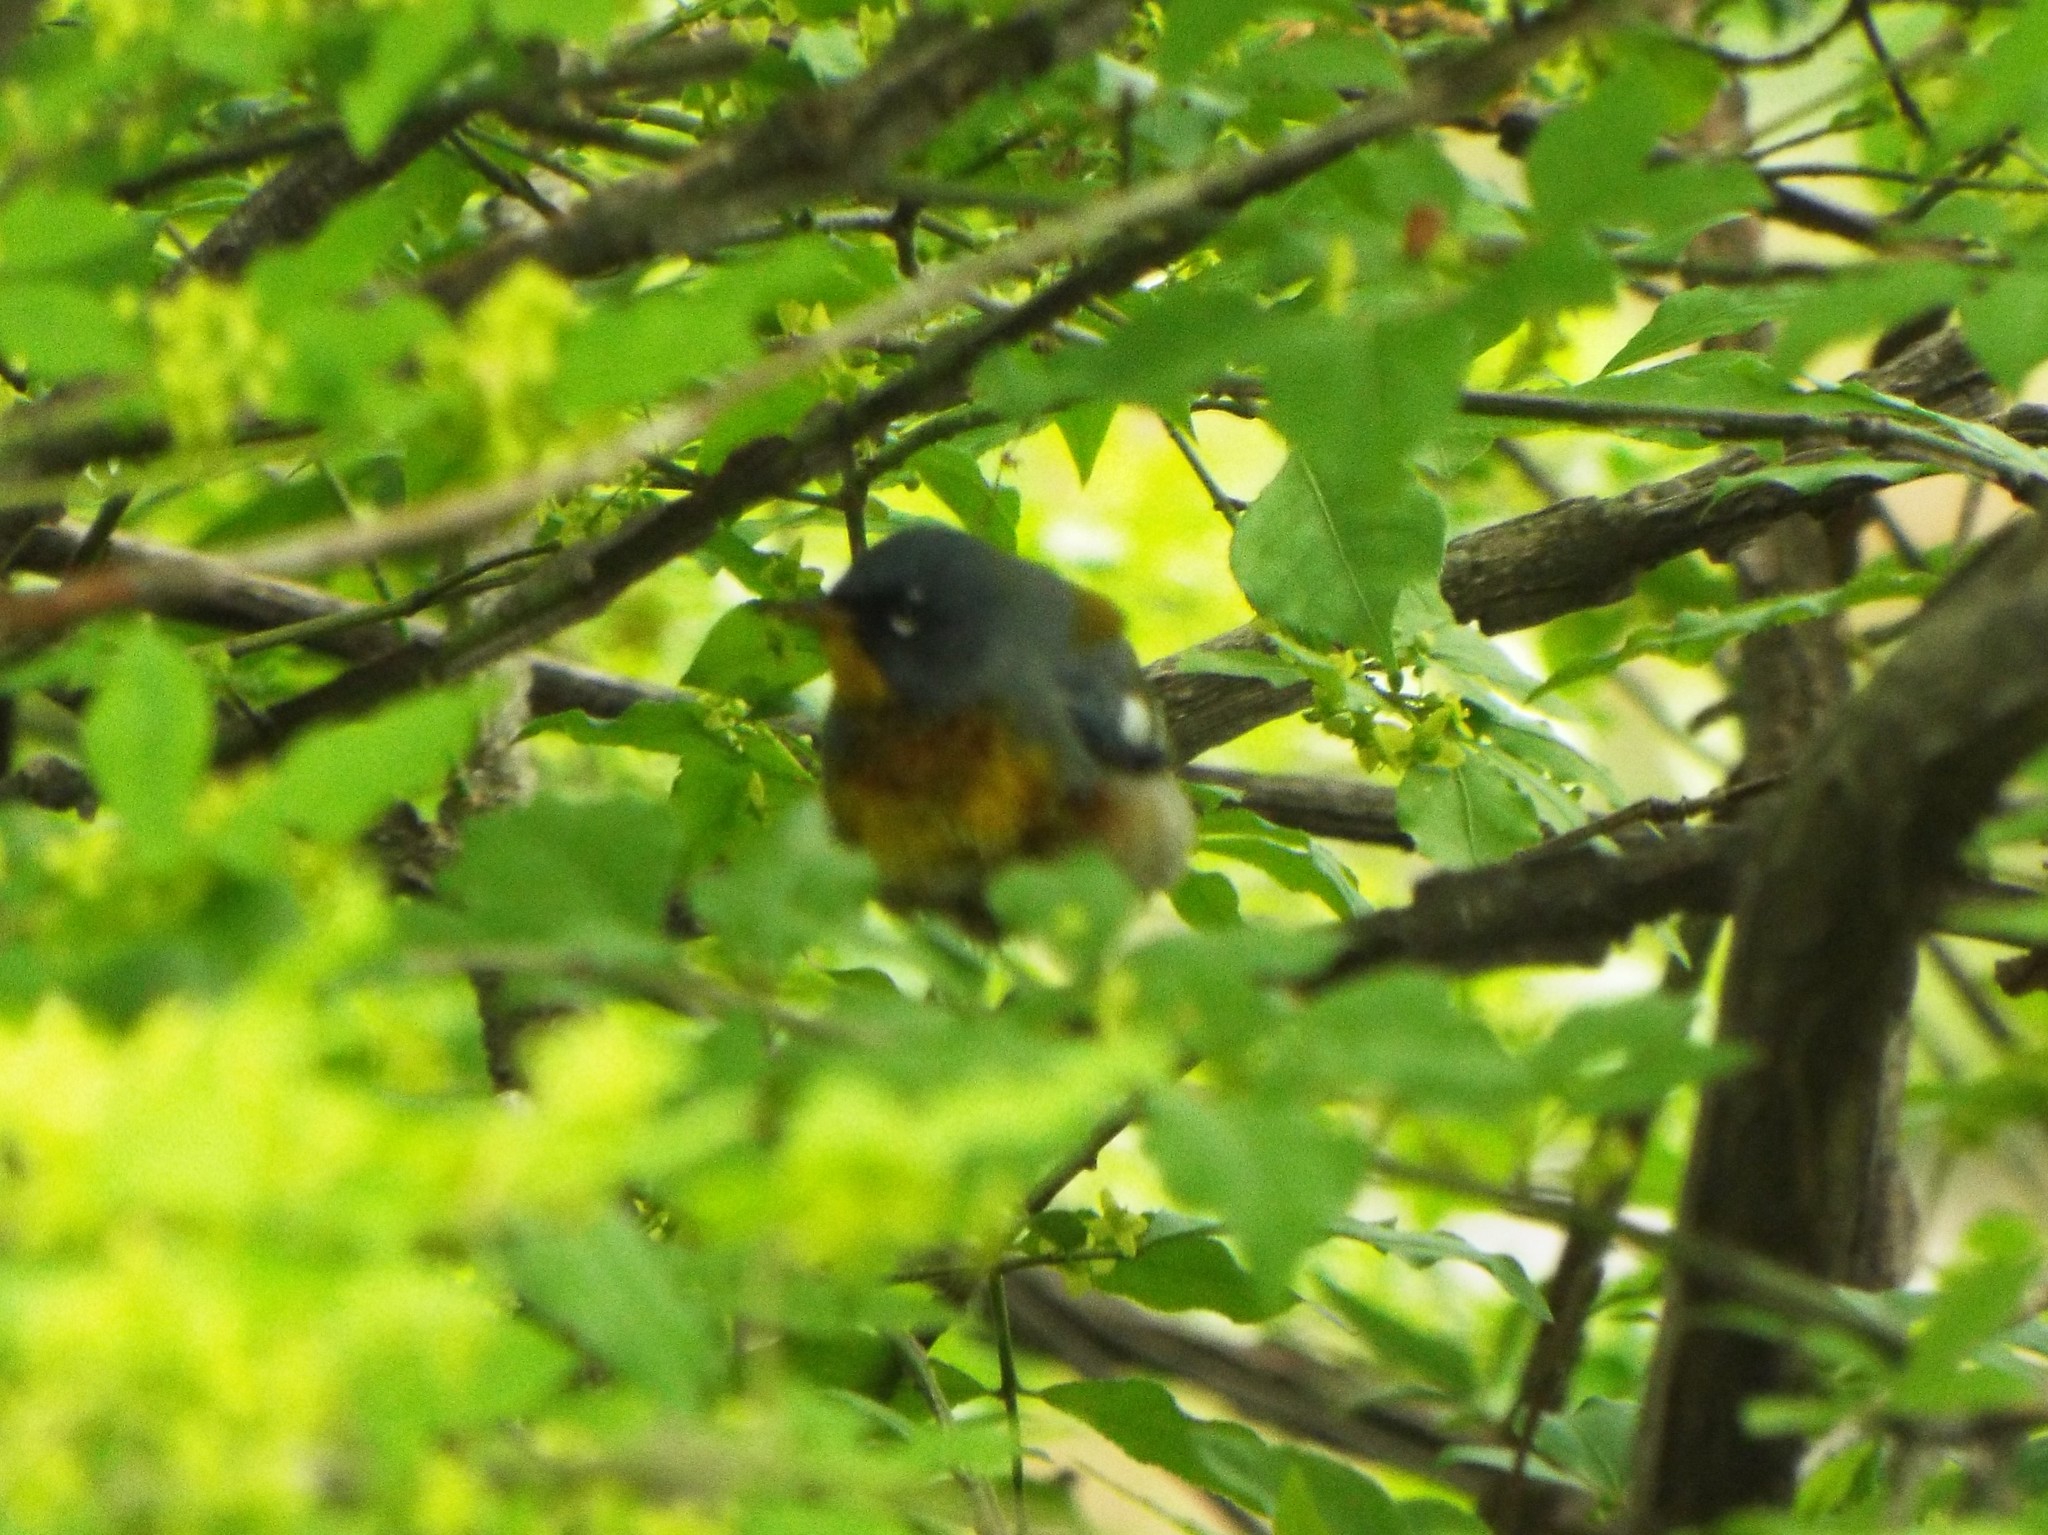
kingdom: Animalia
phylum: Chordata
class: Aves
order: Passeriformes
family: Parulidae
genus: Setophaga
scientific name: Setophaga americana
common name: Northern parula
